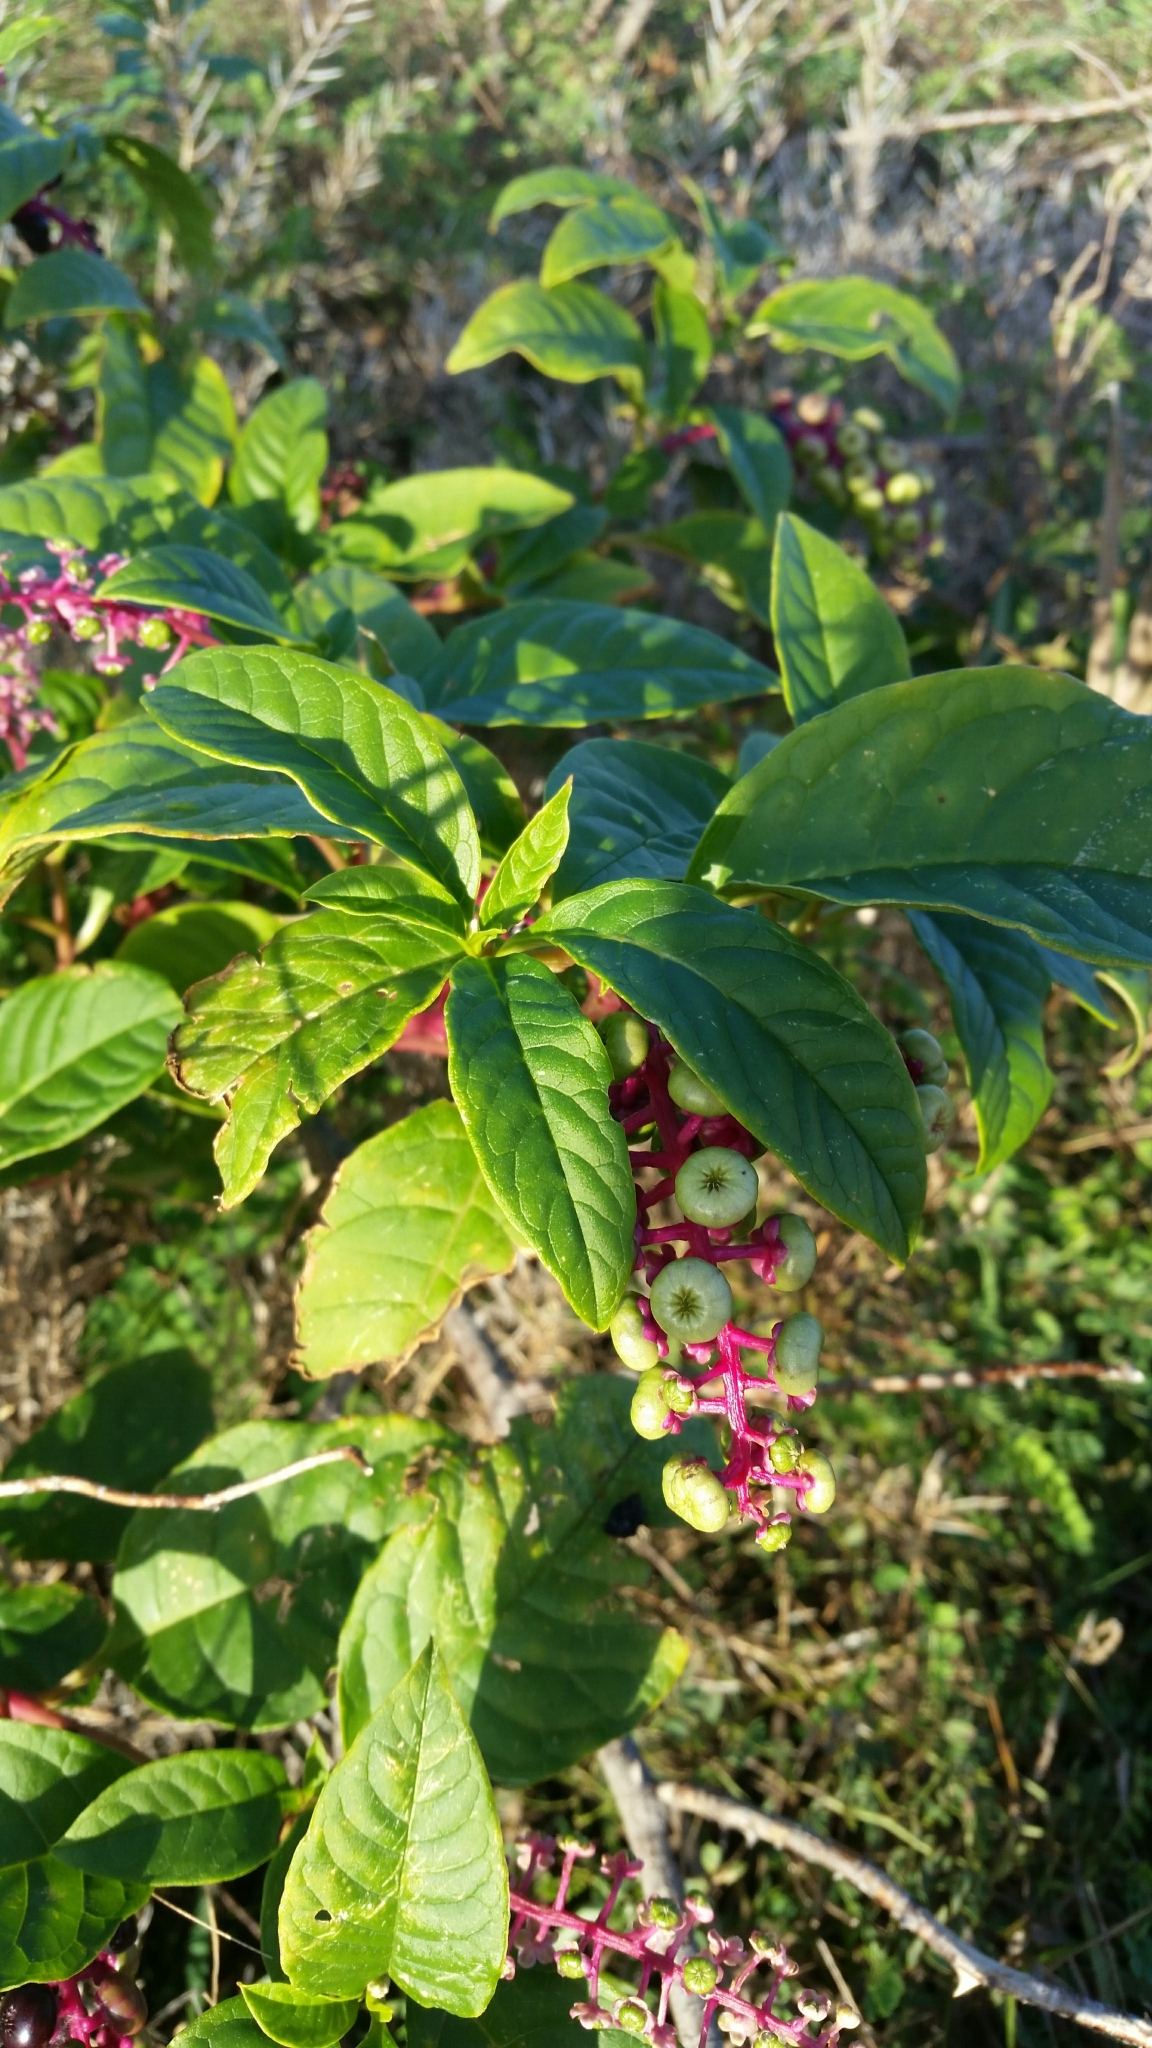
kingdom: Plantae
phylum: Tracheophyta
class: Magnoliopsida
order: Caryophyllales
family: Phytolaccaceae
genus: Phytolacca
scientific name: Phytolacca americana
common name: American pokeweed
